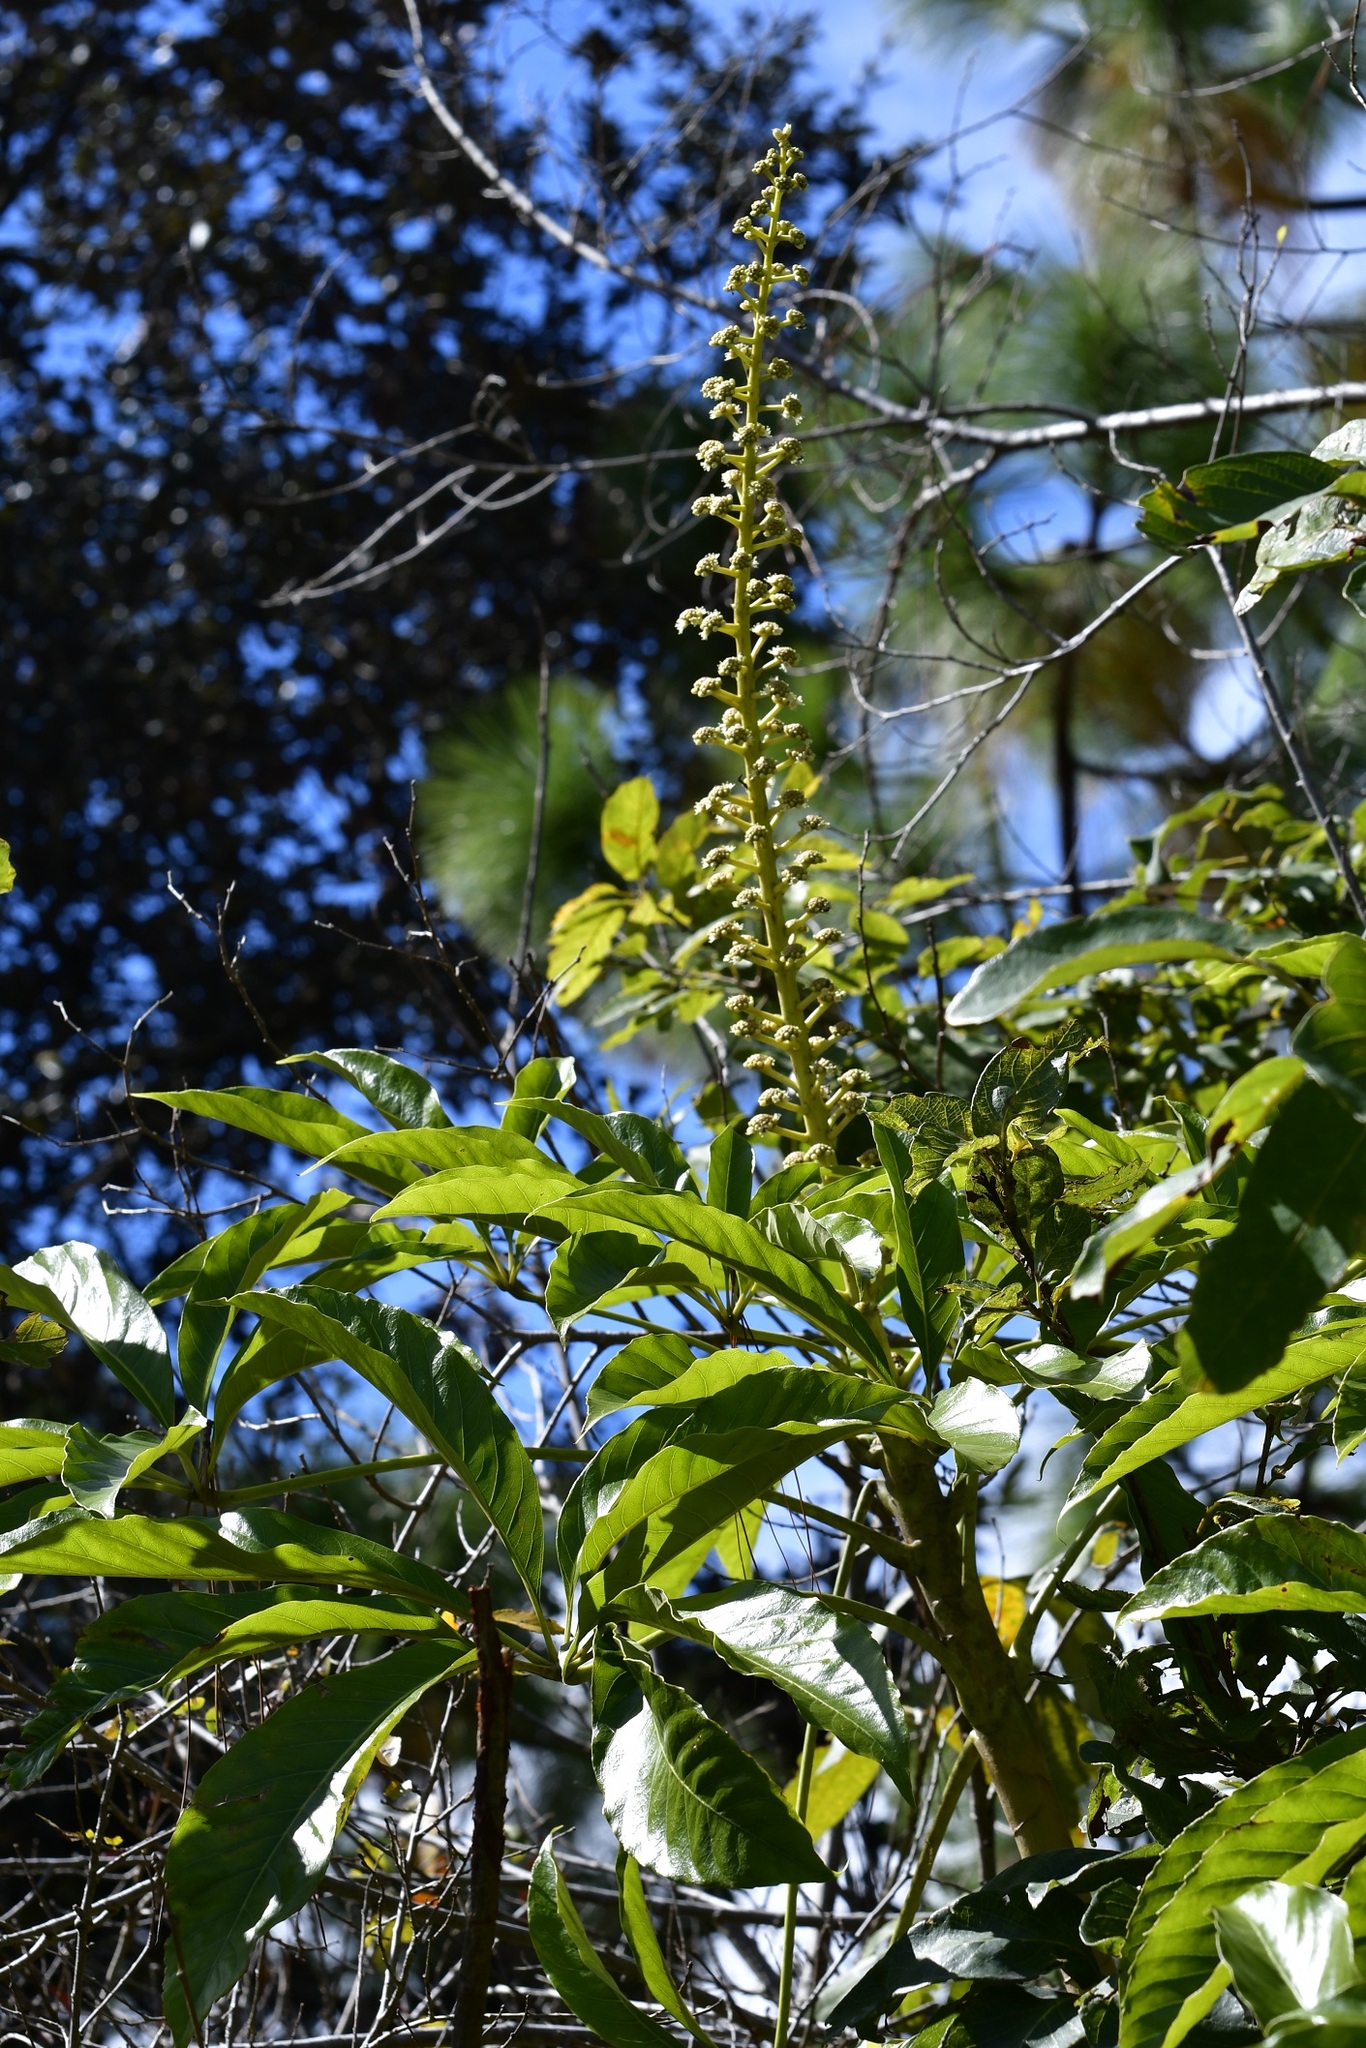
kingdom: Plantae
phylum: Tracheophyta
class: Magnoliopsida
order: Apiales
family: Araliaceae
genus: Oreopanax
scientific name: Oreopanax xalapensis
